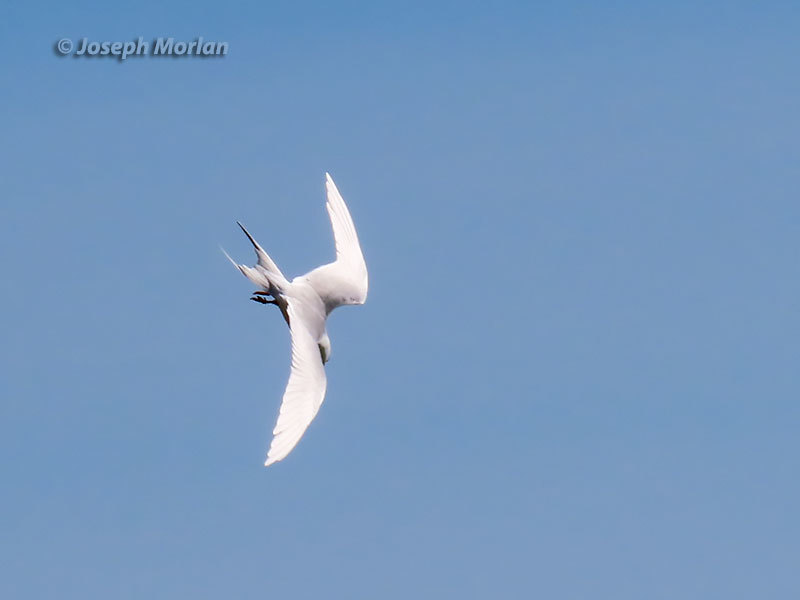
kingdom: Animalia
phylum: Chordata
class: Aves
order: Charadriiformes
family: Laridae
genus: Sterna
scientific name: Sterna forsteri
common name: Forster's tern
